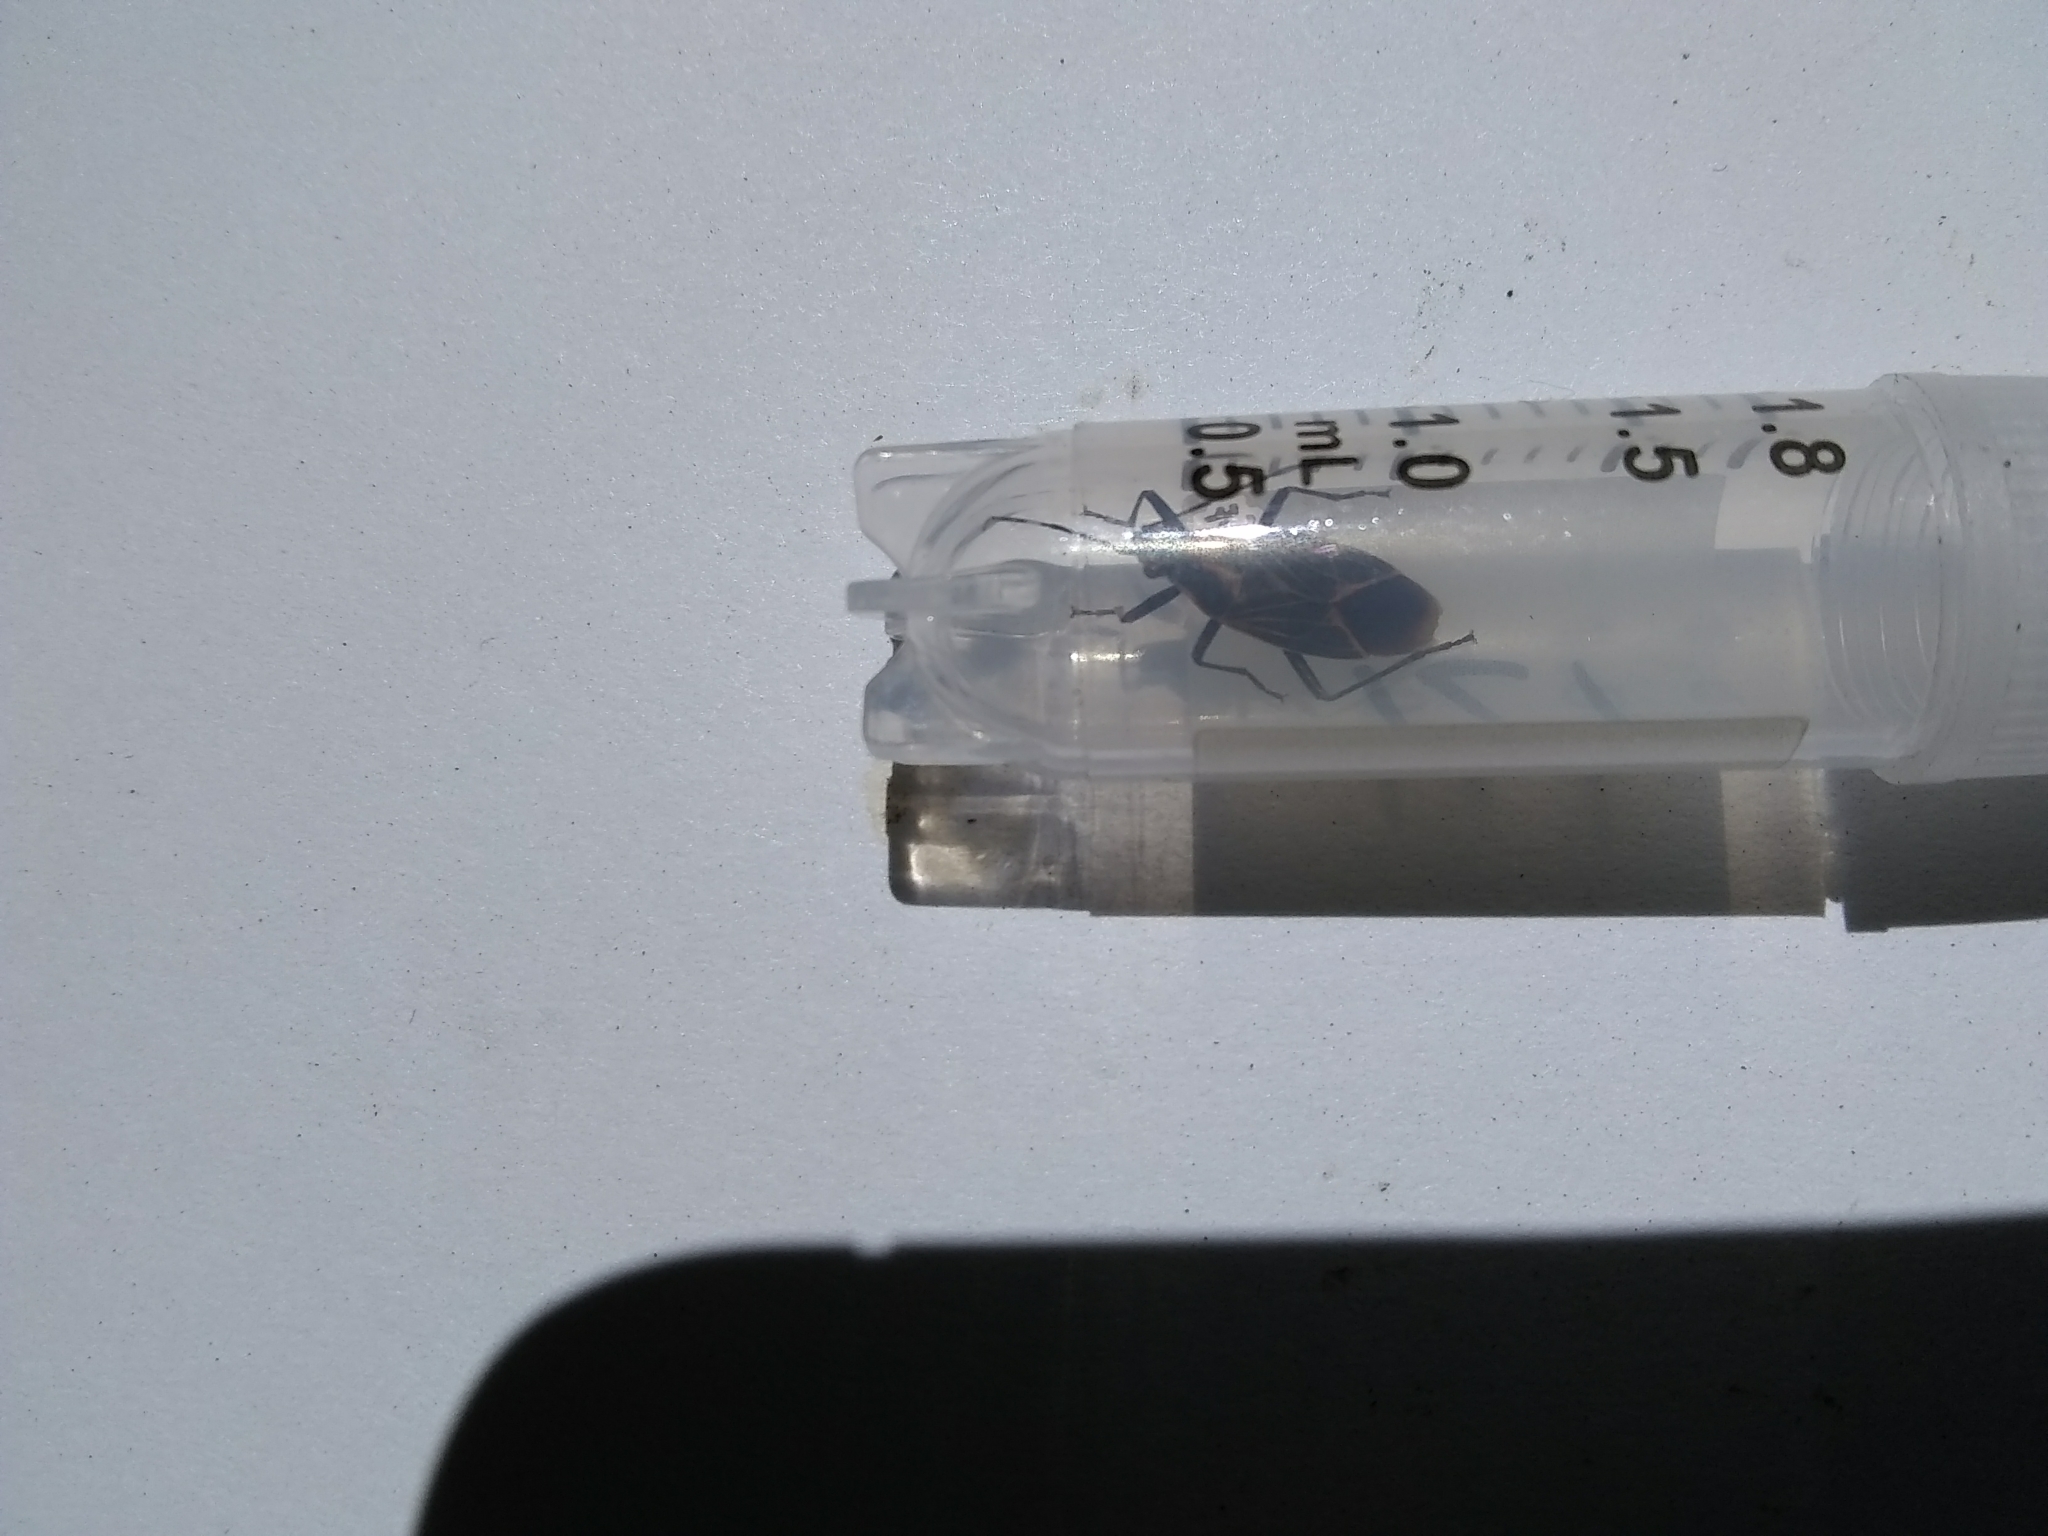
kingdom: Animalia
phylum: Arthropoda
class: Insecta
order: Hemiptera
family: Rhopalidae
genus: Boisea
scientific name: Boisea rubrolineata
